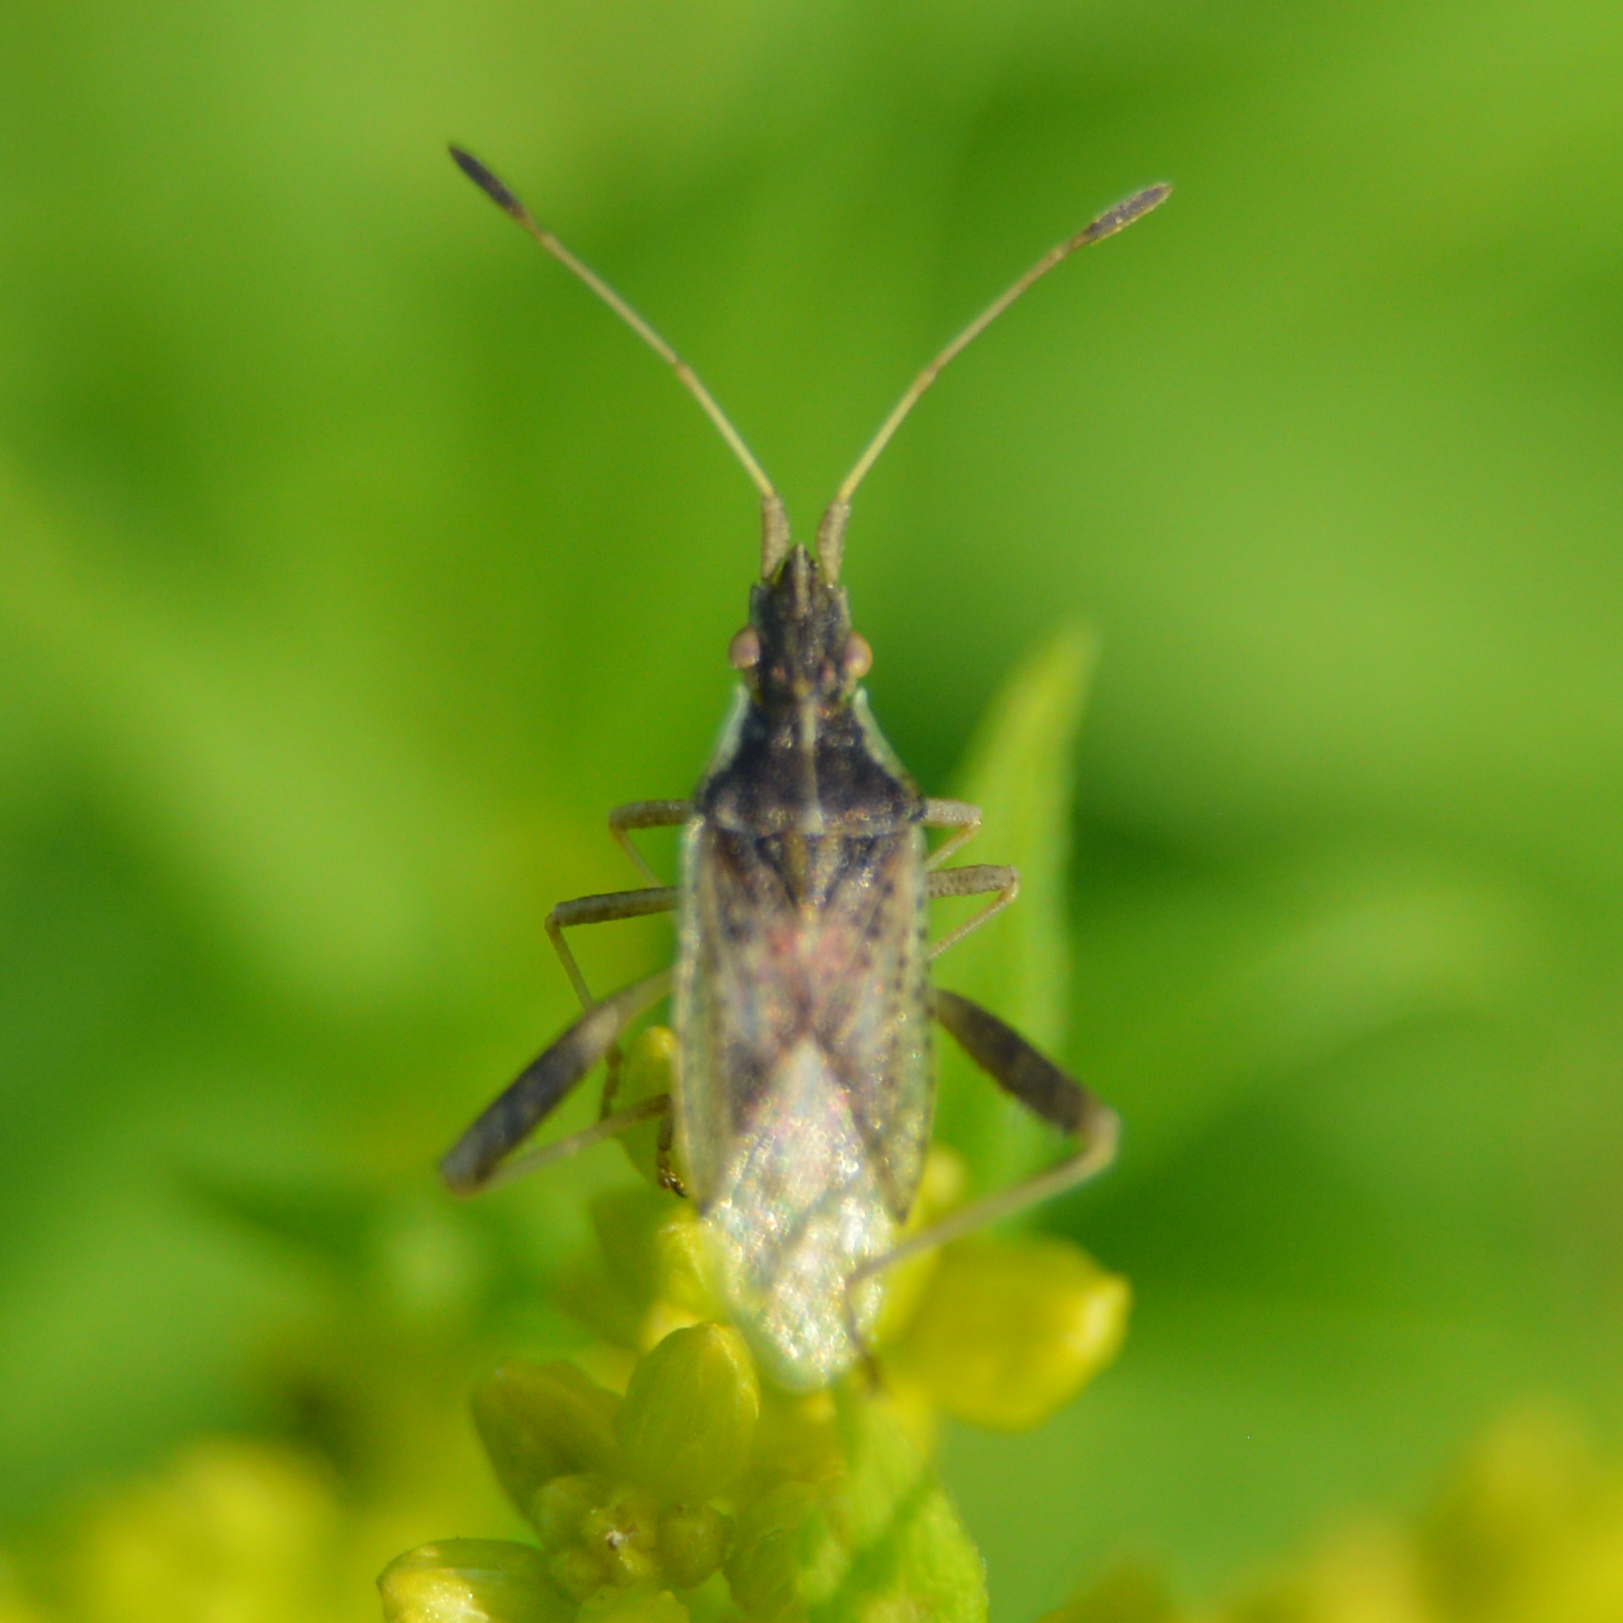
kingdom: Animalia
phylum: Arthropoda
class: Insecta
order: Hemiptera
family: Rhopalidae
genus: Harmostes
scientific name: Harmostes reflexulus
